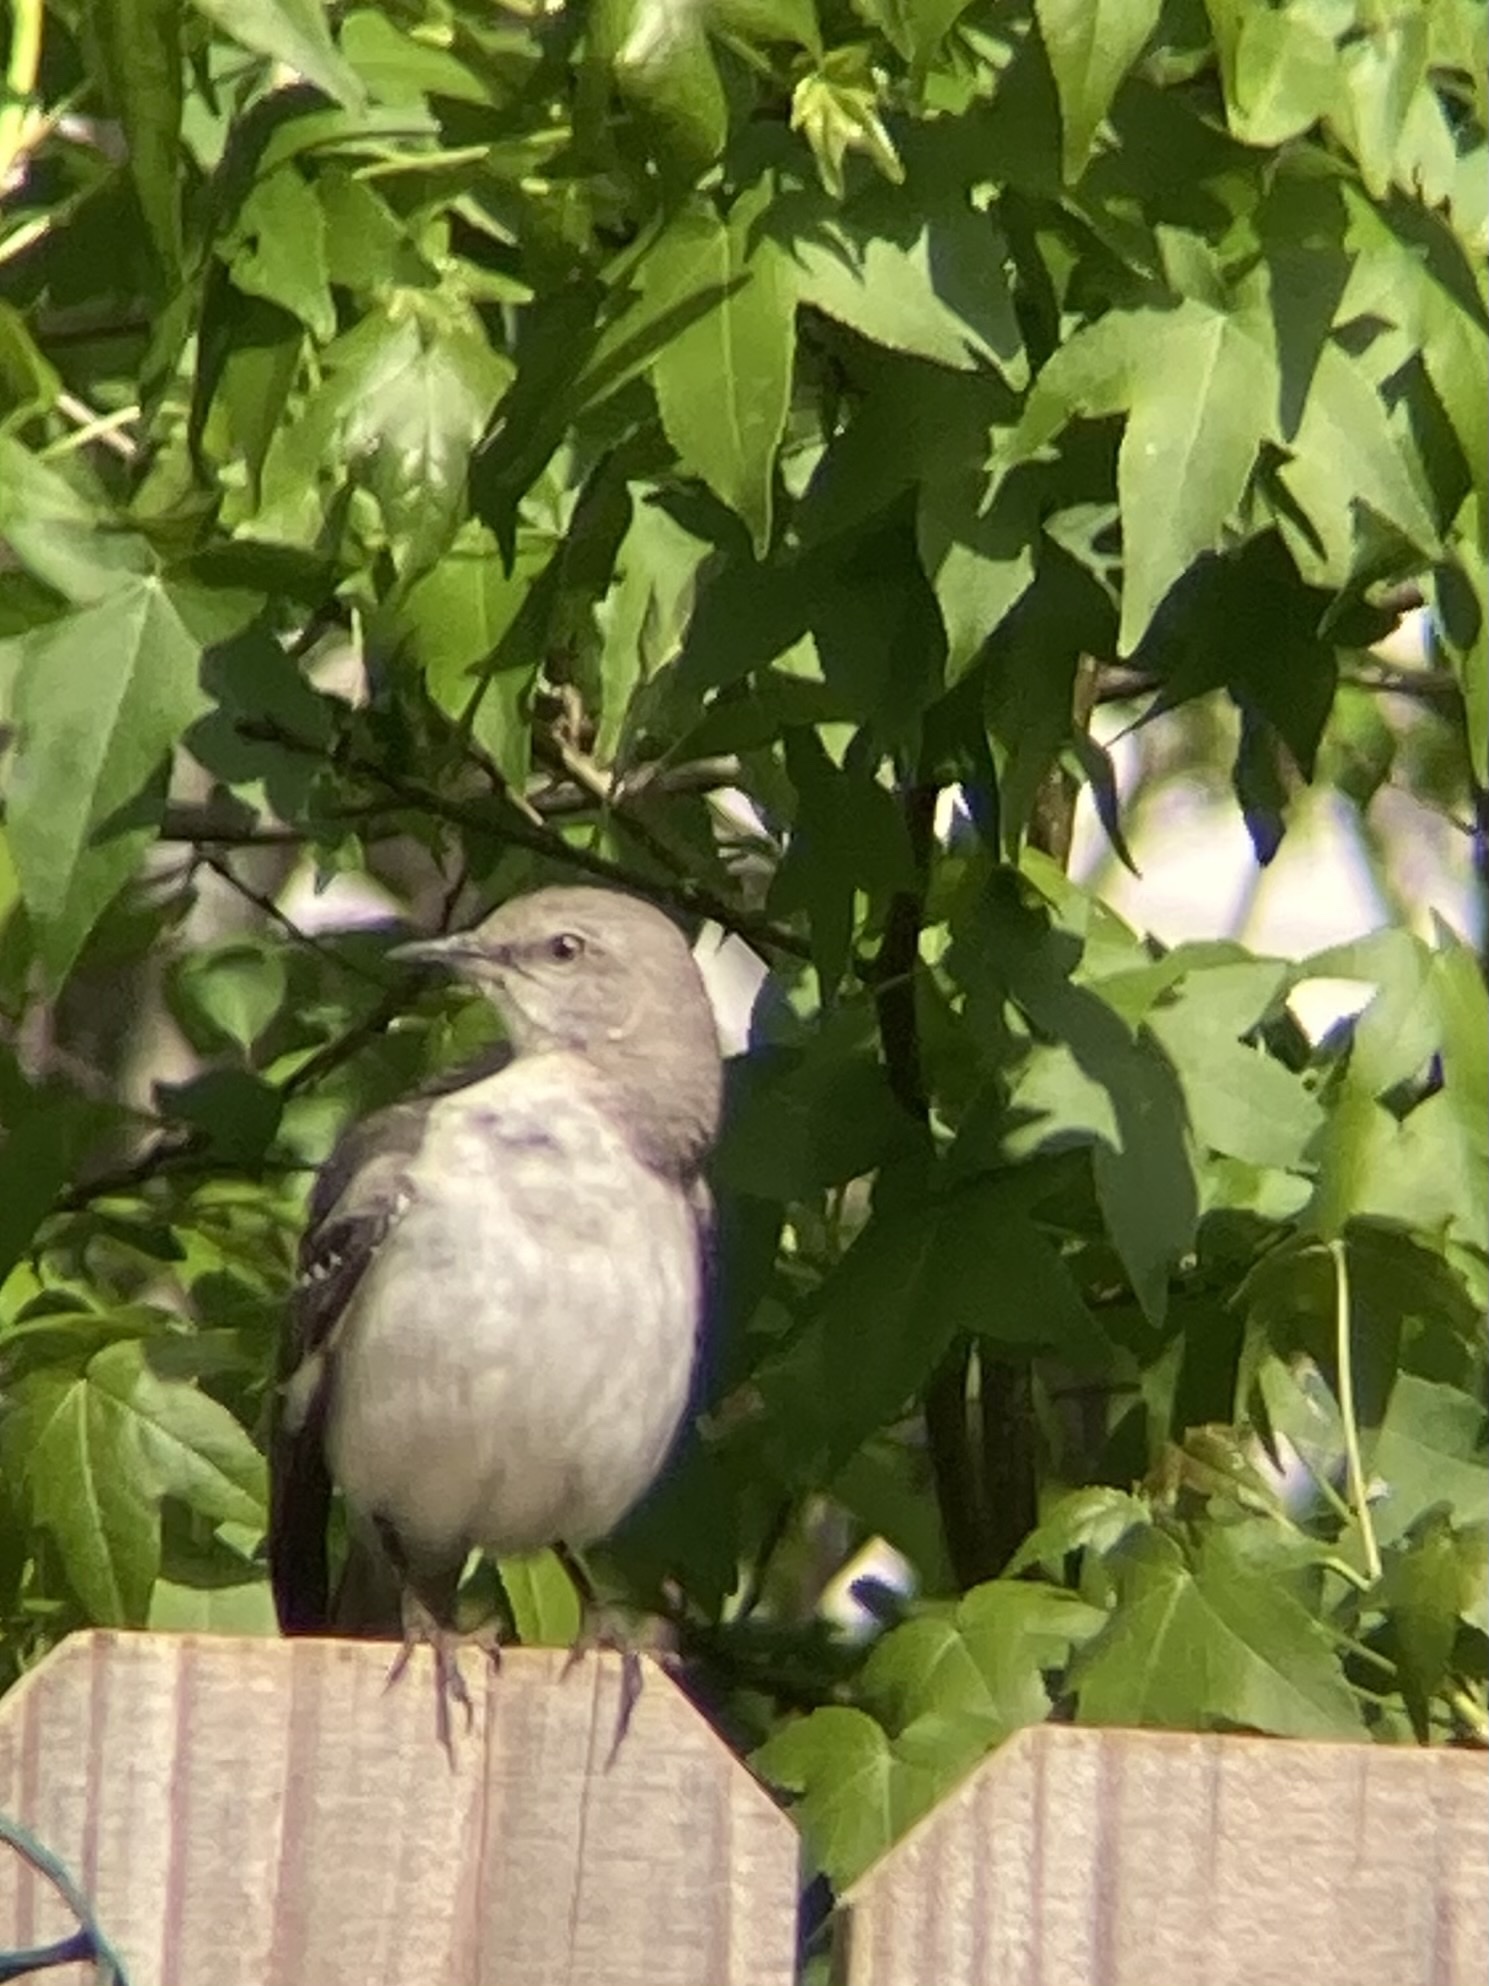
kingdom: Animalia
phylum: Chordata
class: Aves
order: Passeriformes
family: Mimidae
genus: Mimus
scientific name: Mimus polyglottos
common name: Northern mockingbird
